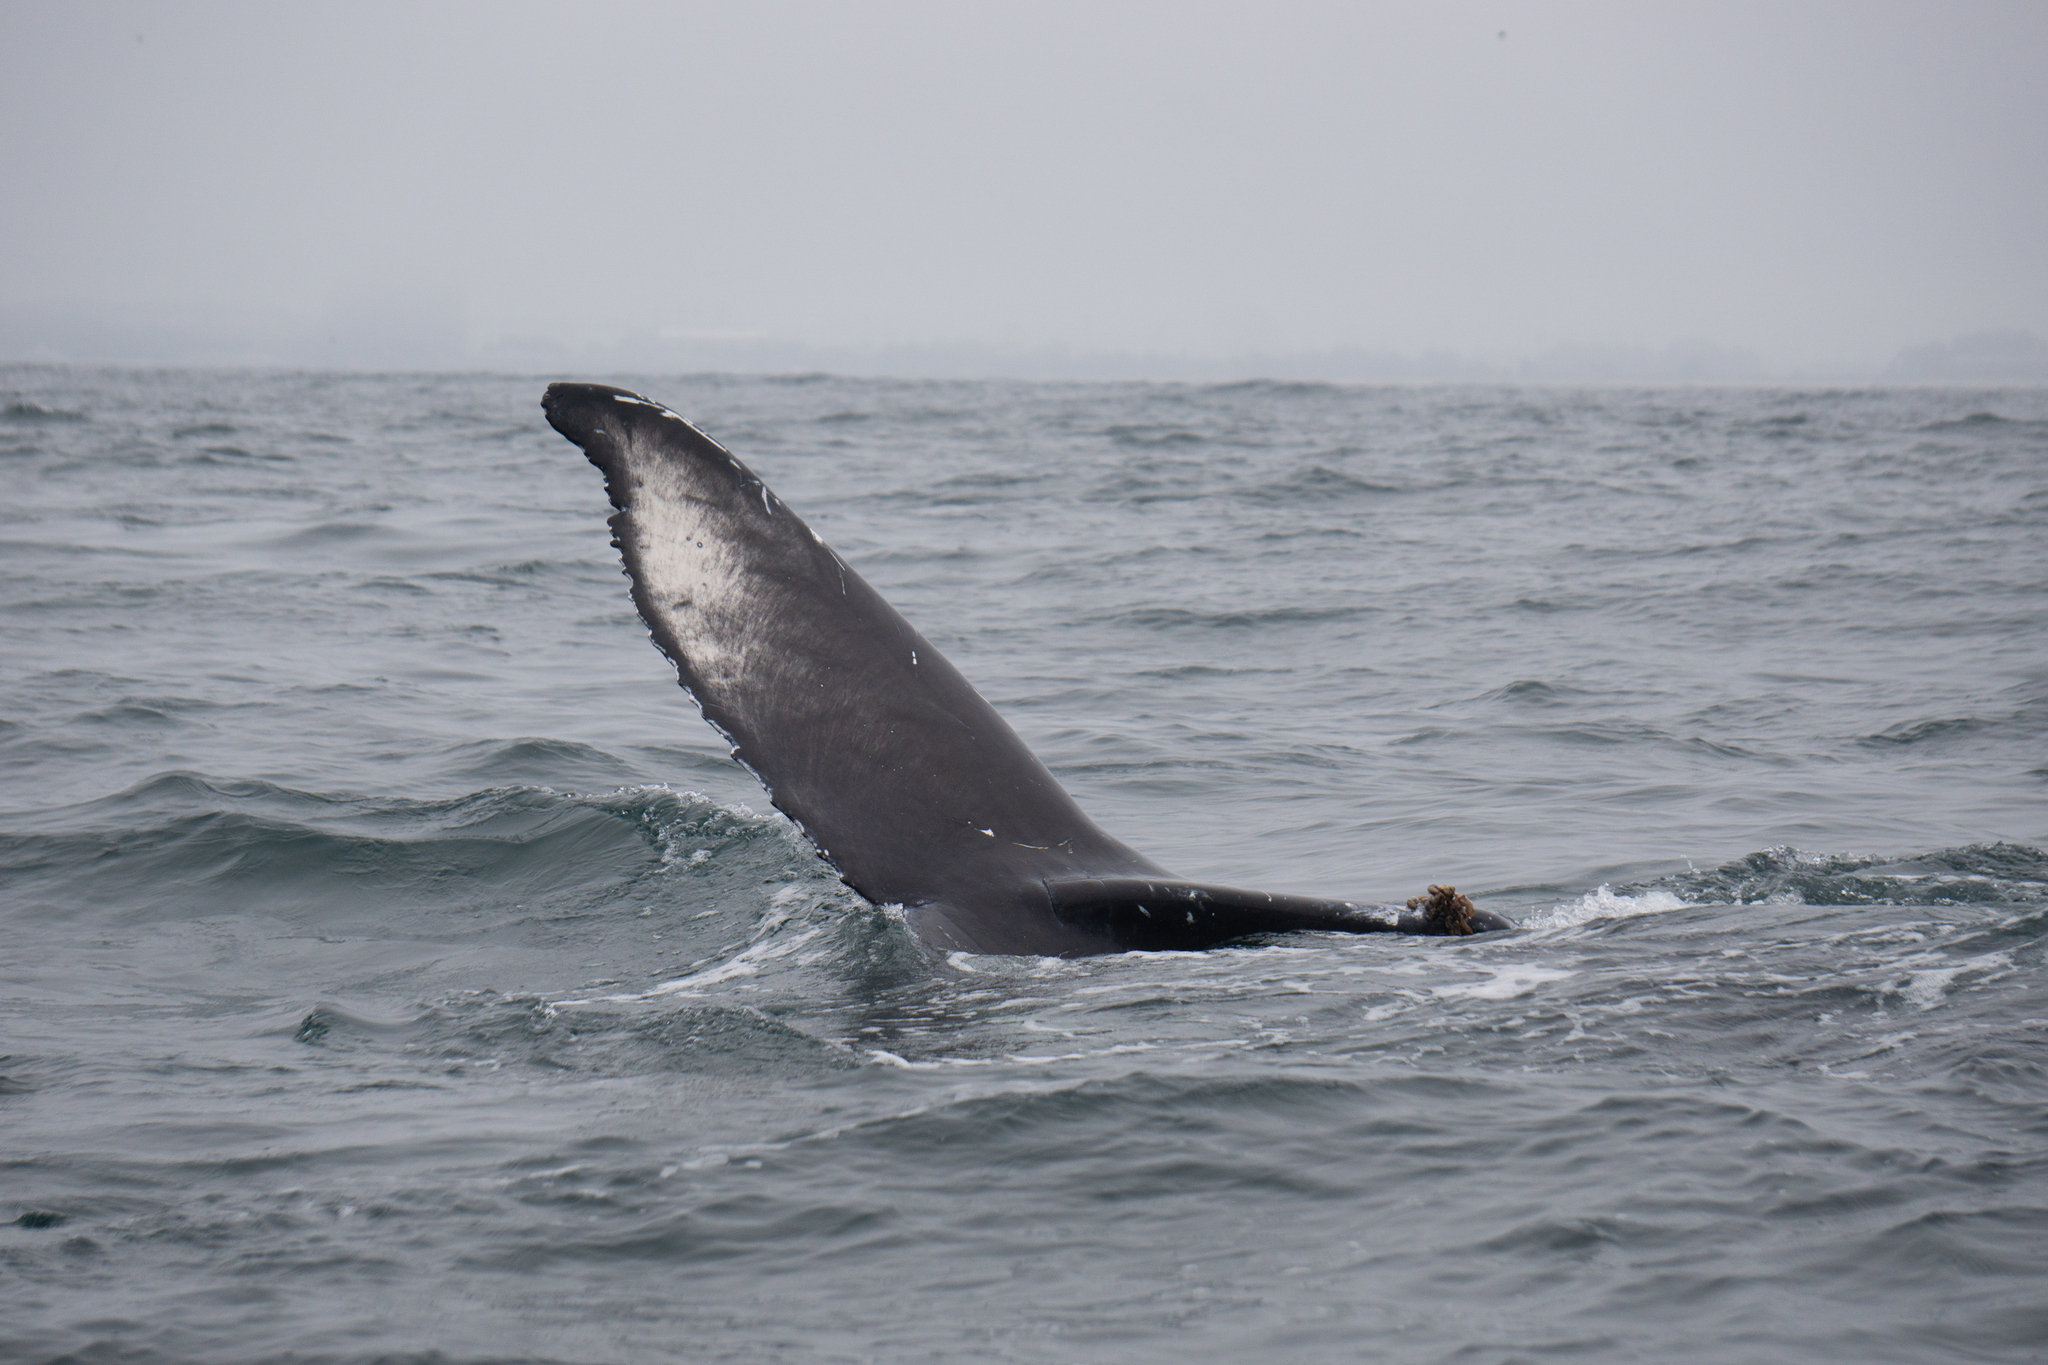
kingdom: Animalia
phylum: Chordata
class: Mammalia
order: Cetacea
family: Balaenopteridae
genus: Megaptera
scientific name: Megaptera novaeangliae
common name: Humpback whale
